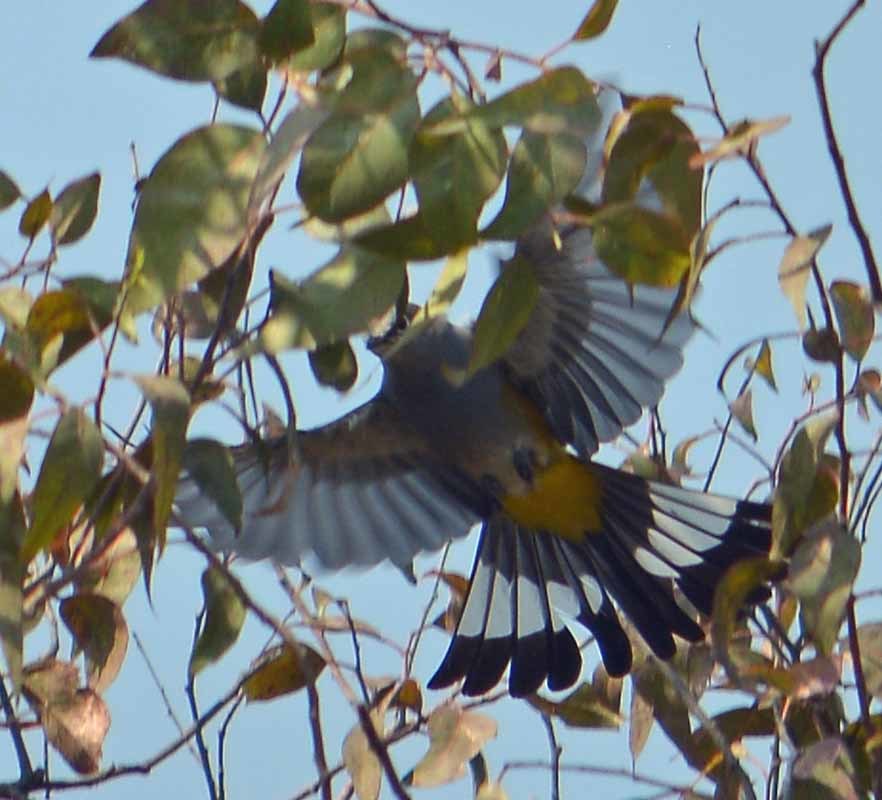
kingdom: Animalia
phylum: Chordata
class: Aves
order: Passeriformes
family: Ptilogonatidae
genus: Ptilogonys
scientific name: Ptilogonys cinereus
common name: Gray silky-flycatcher
